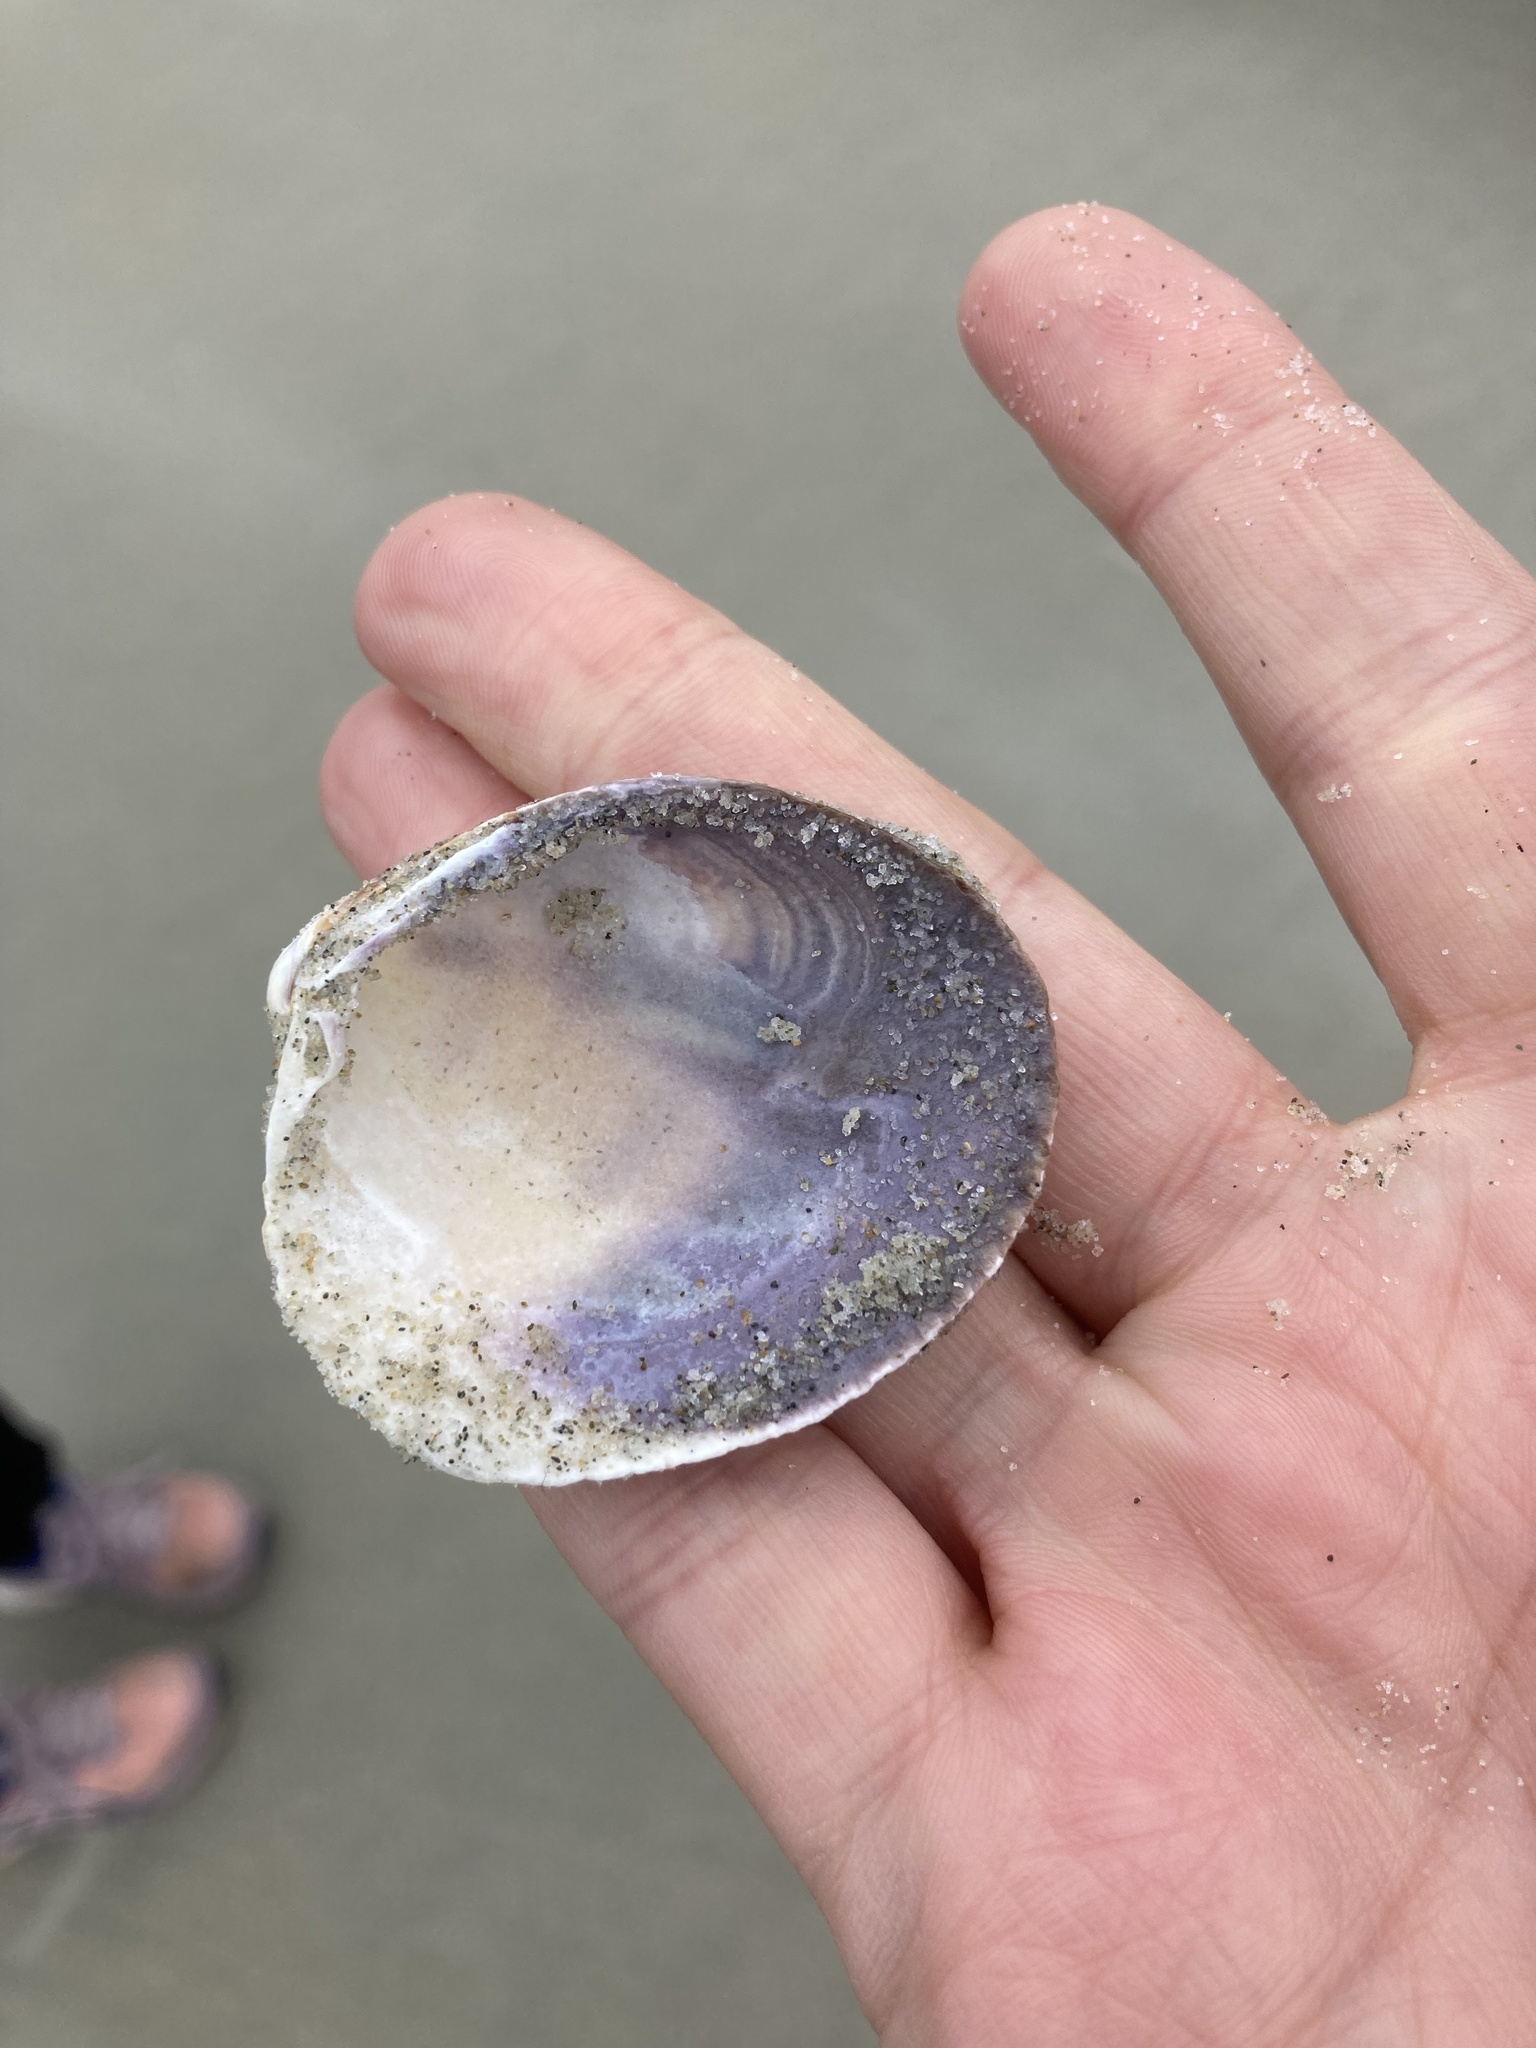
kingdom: Animalia
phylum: Mollusca
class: Bivalvia
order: Venerida
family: Veneridae
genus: Austrovenus
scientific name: Austrovenus stutchburyi
